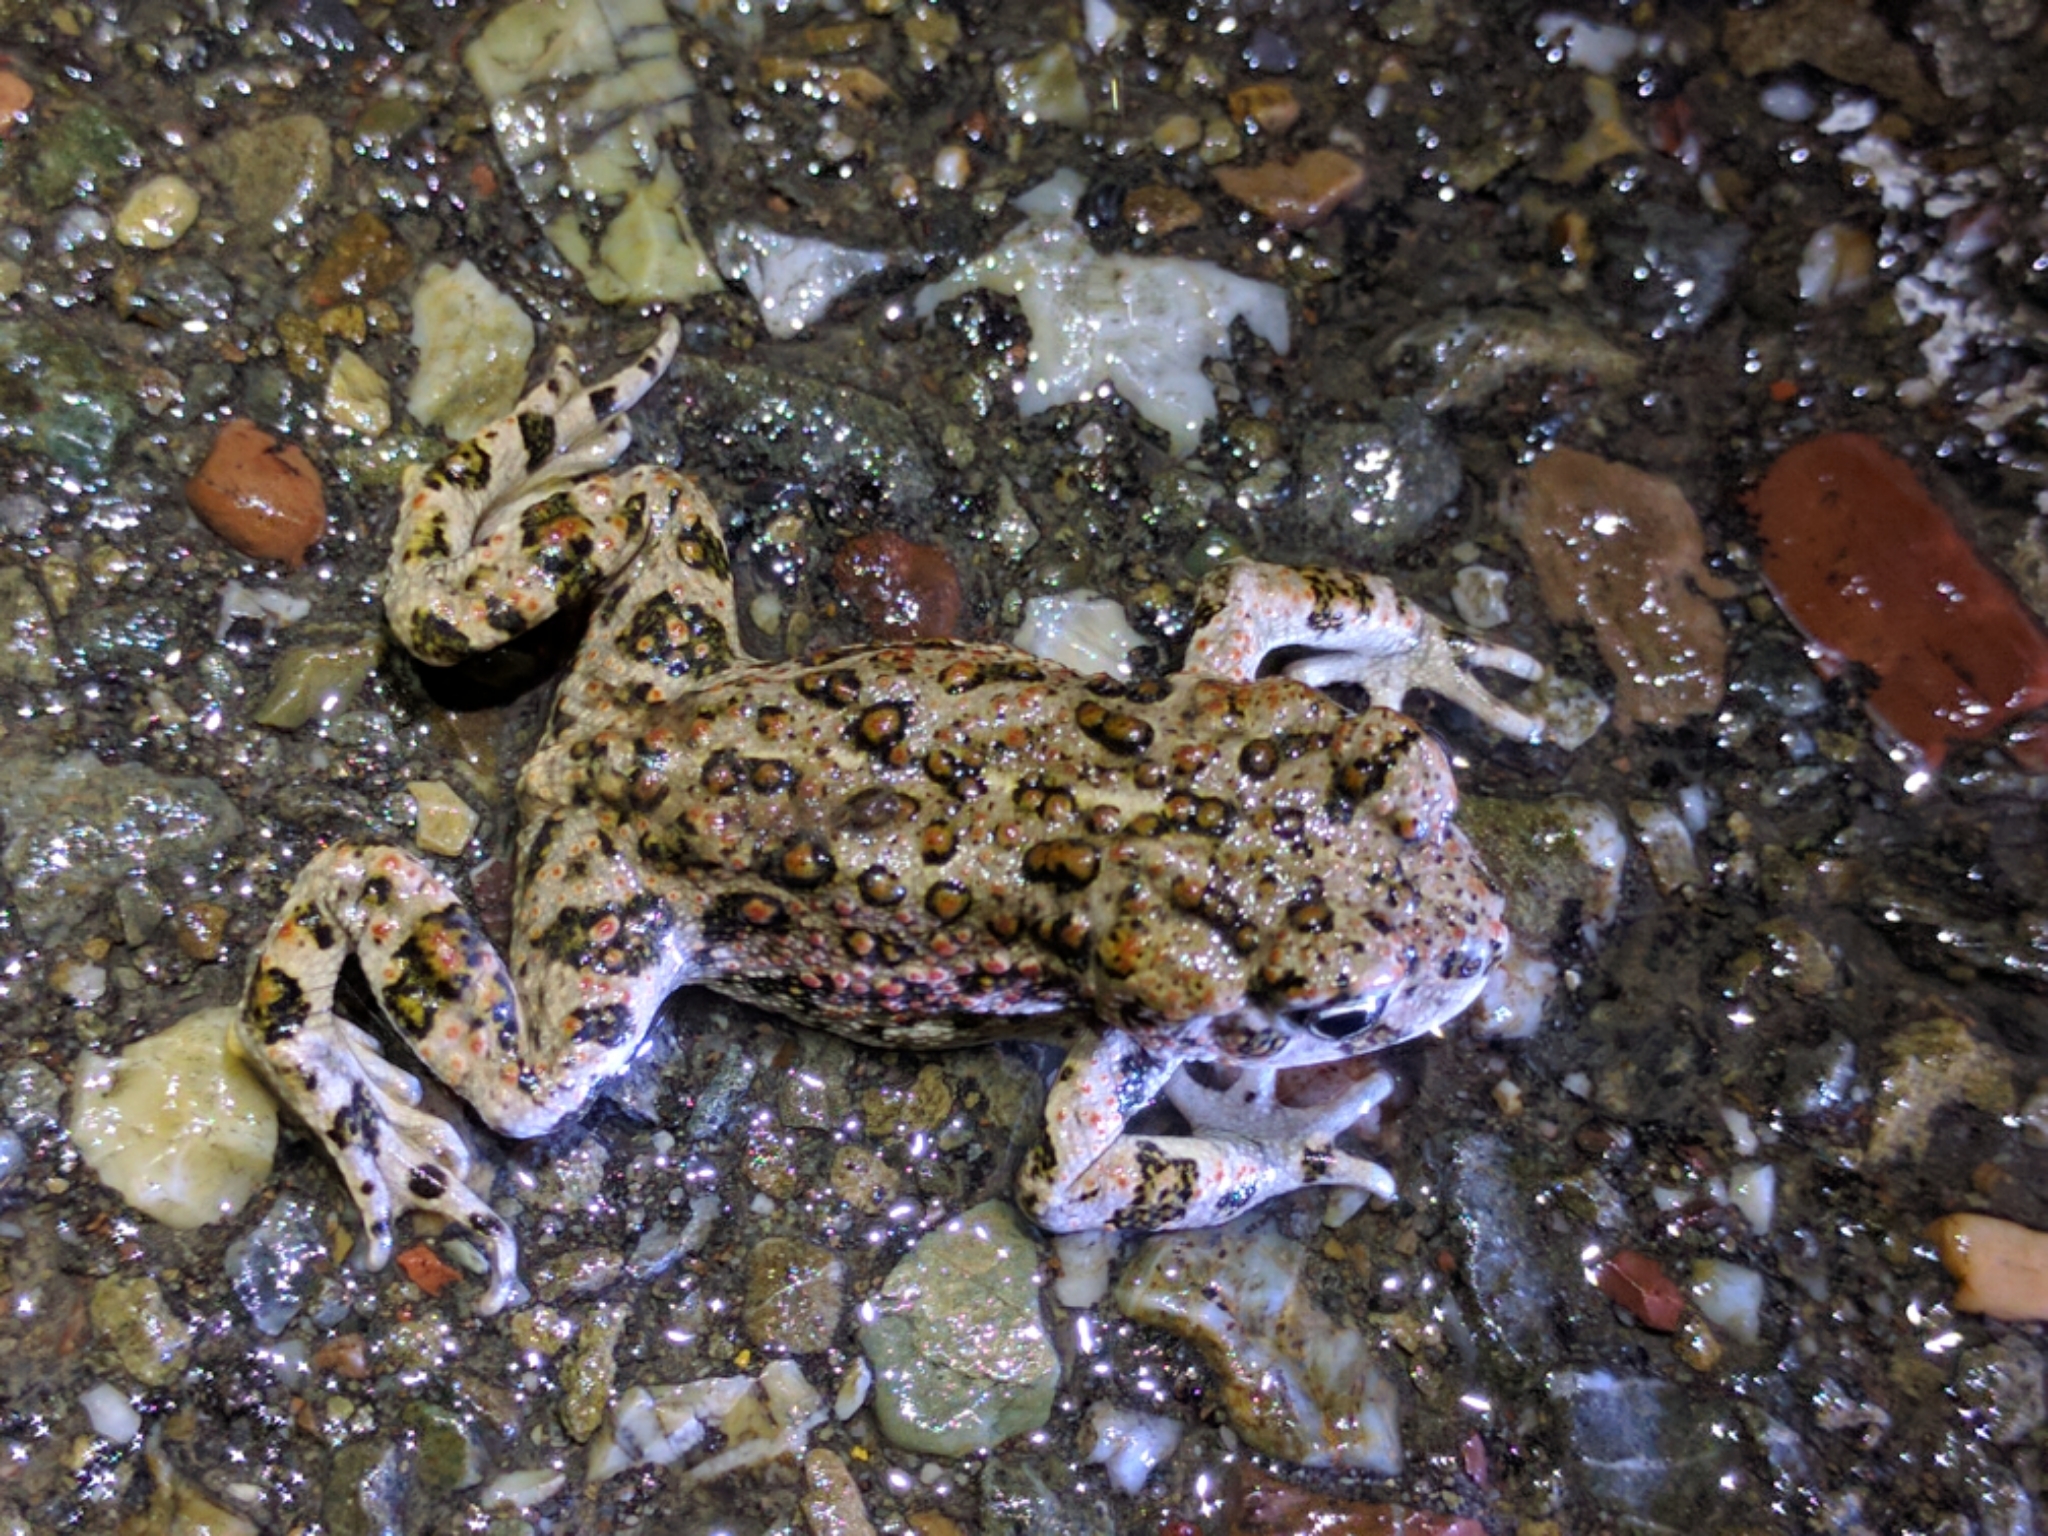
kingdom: Animalia
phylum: Chordata
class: Amphibia
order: Anura
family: Bufonidae
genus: Anaxyrus
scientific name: Anaxyrus boreas
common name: Western toad
